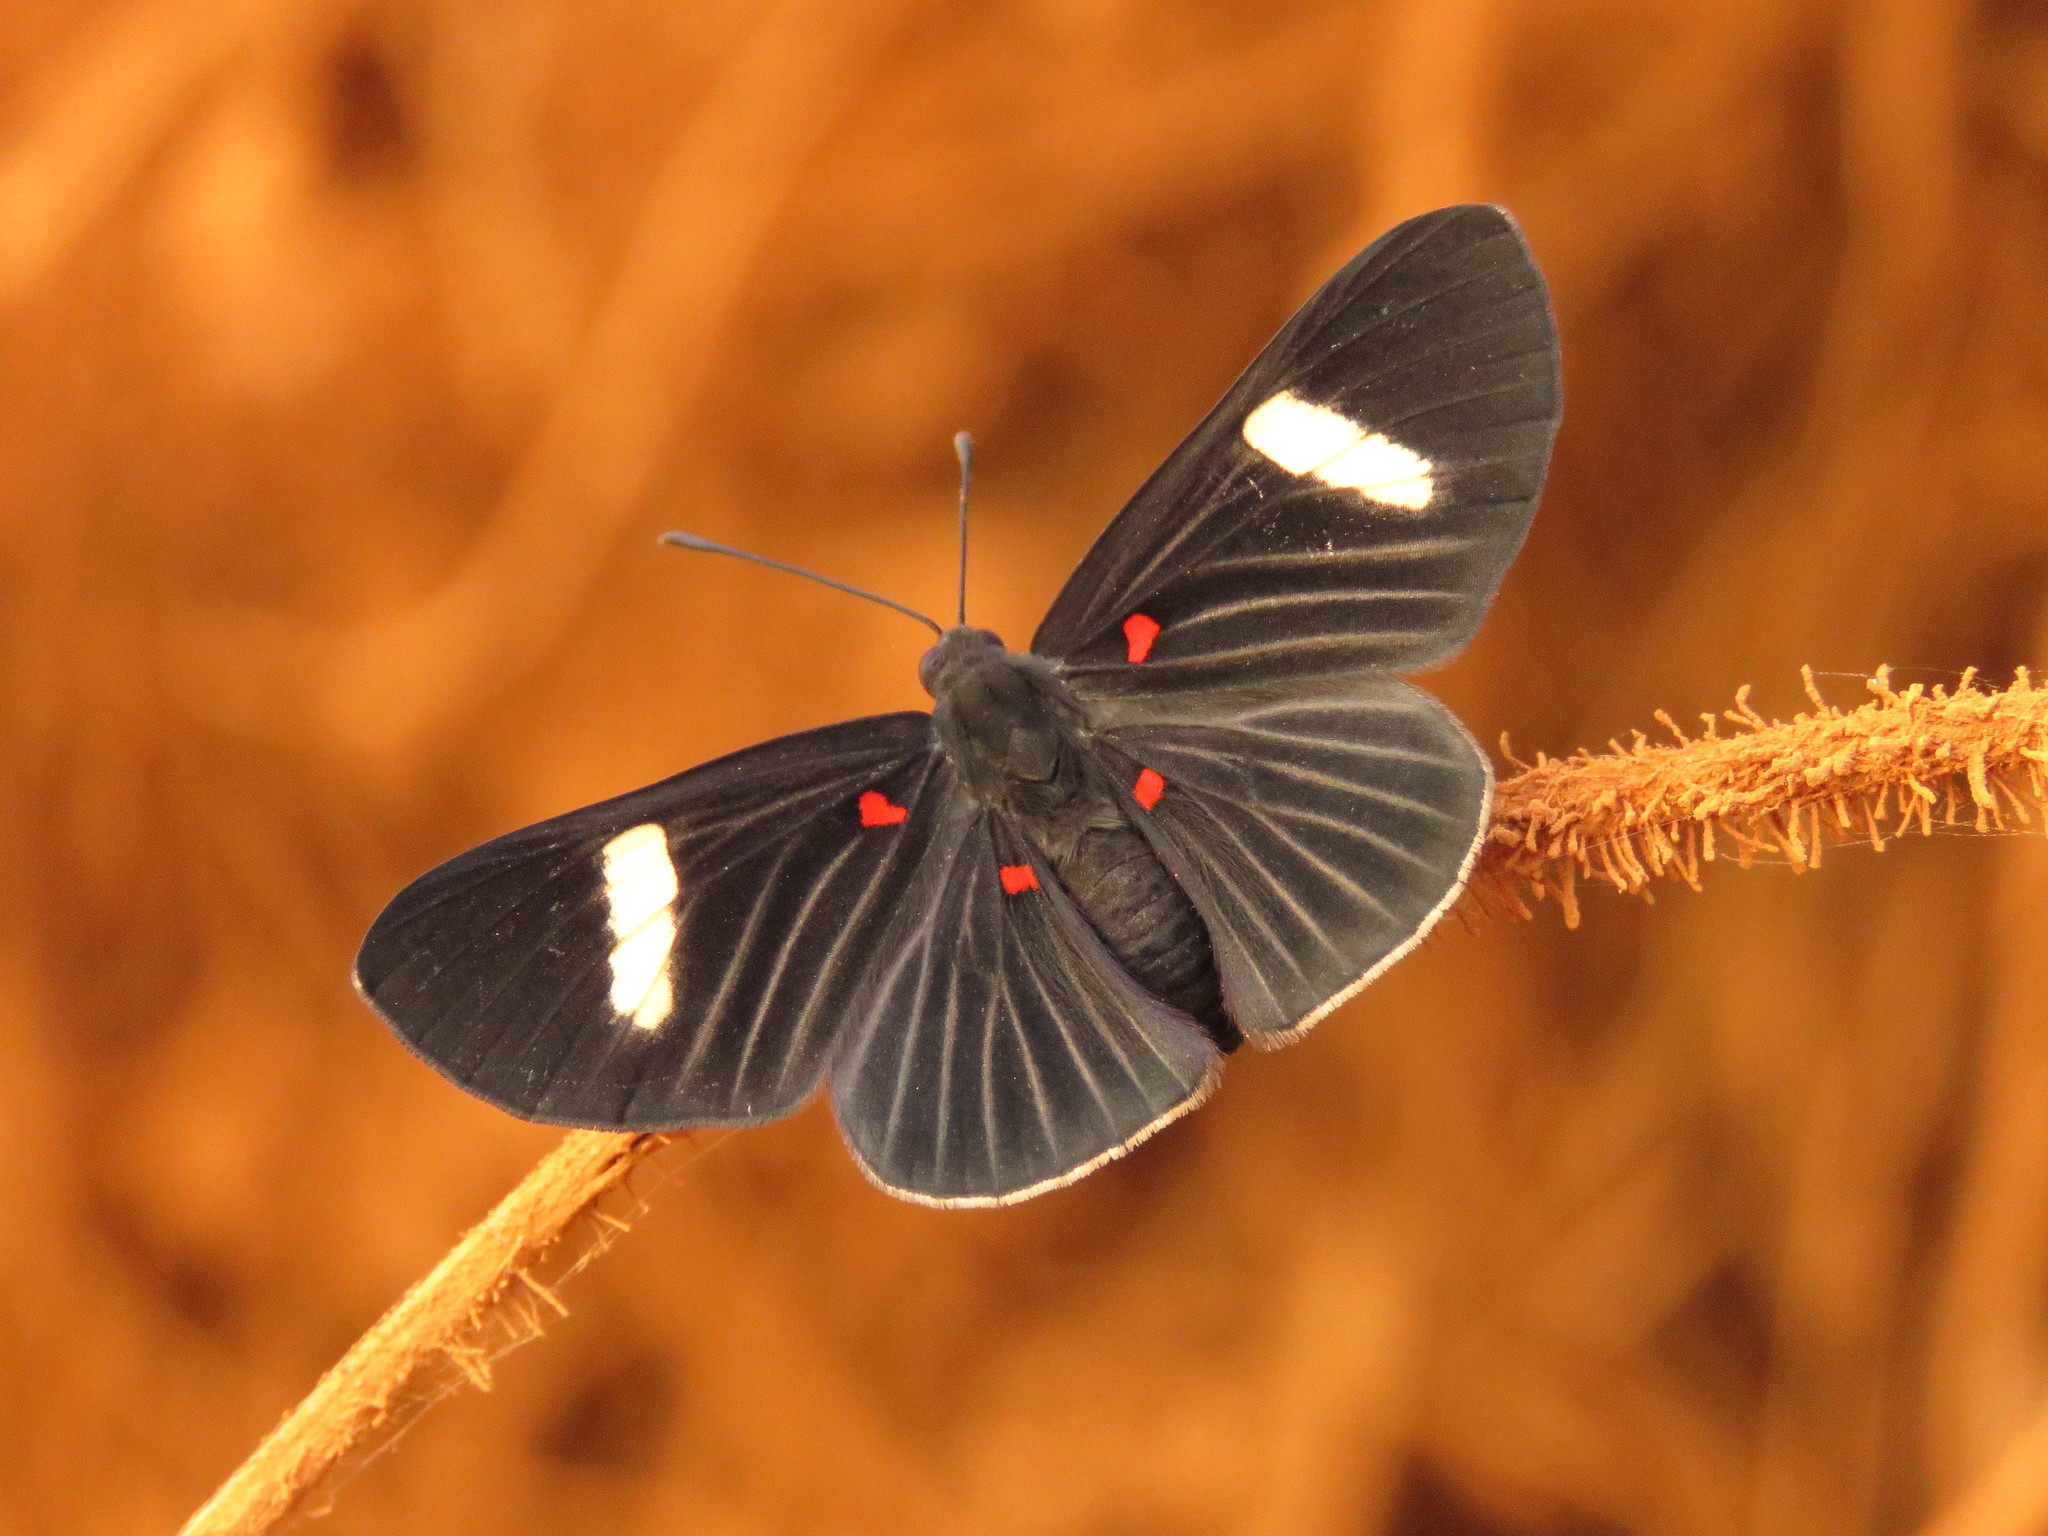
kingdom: Animalia
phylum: Arthropoda
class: Insecta
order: Lepidoptera
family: Lycaenidae
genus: Melanis
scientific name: Melanis aegates
